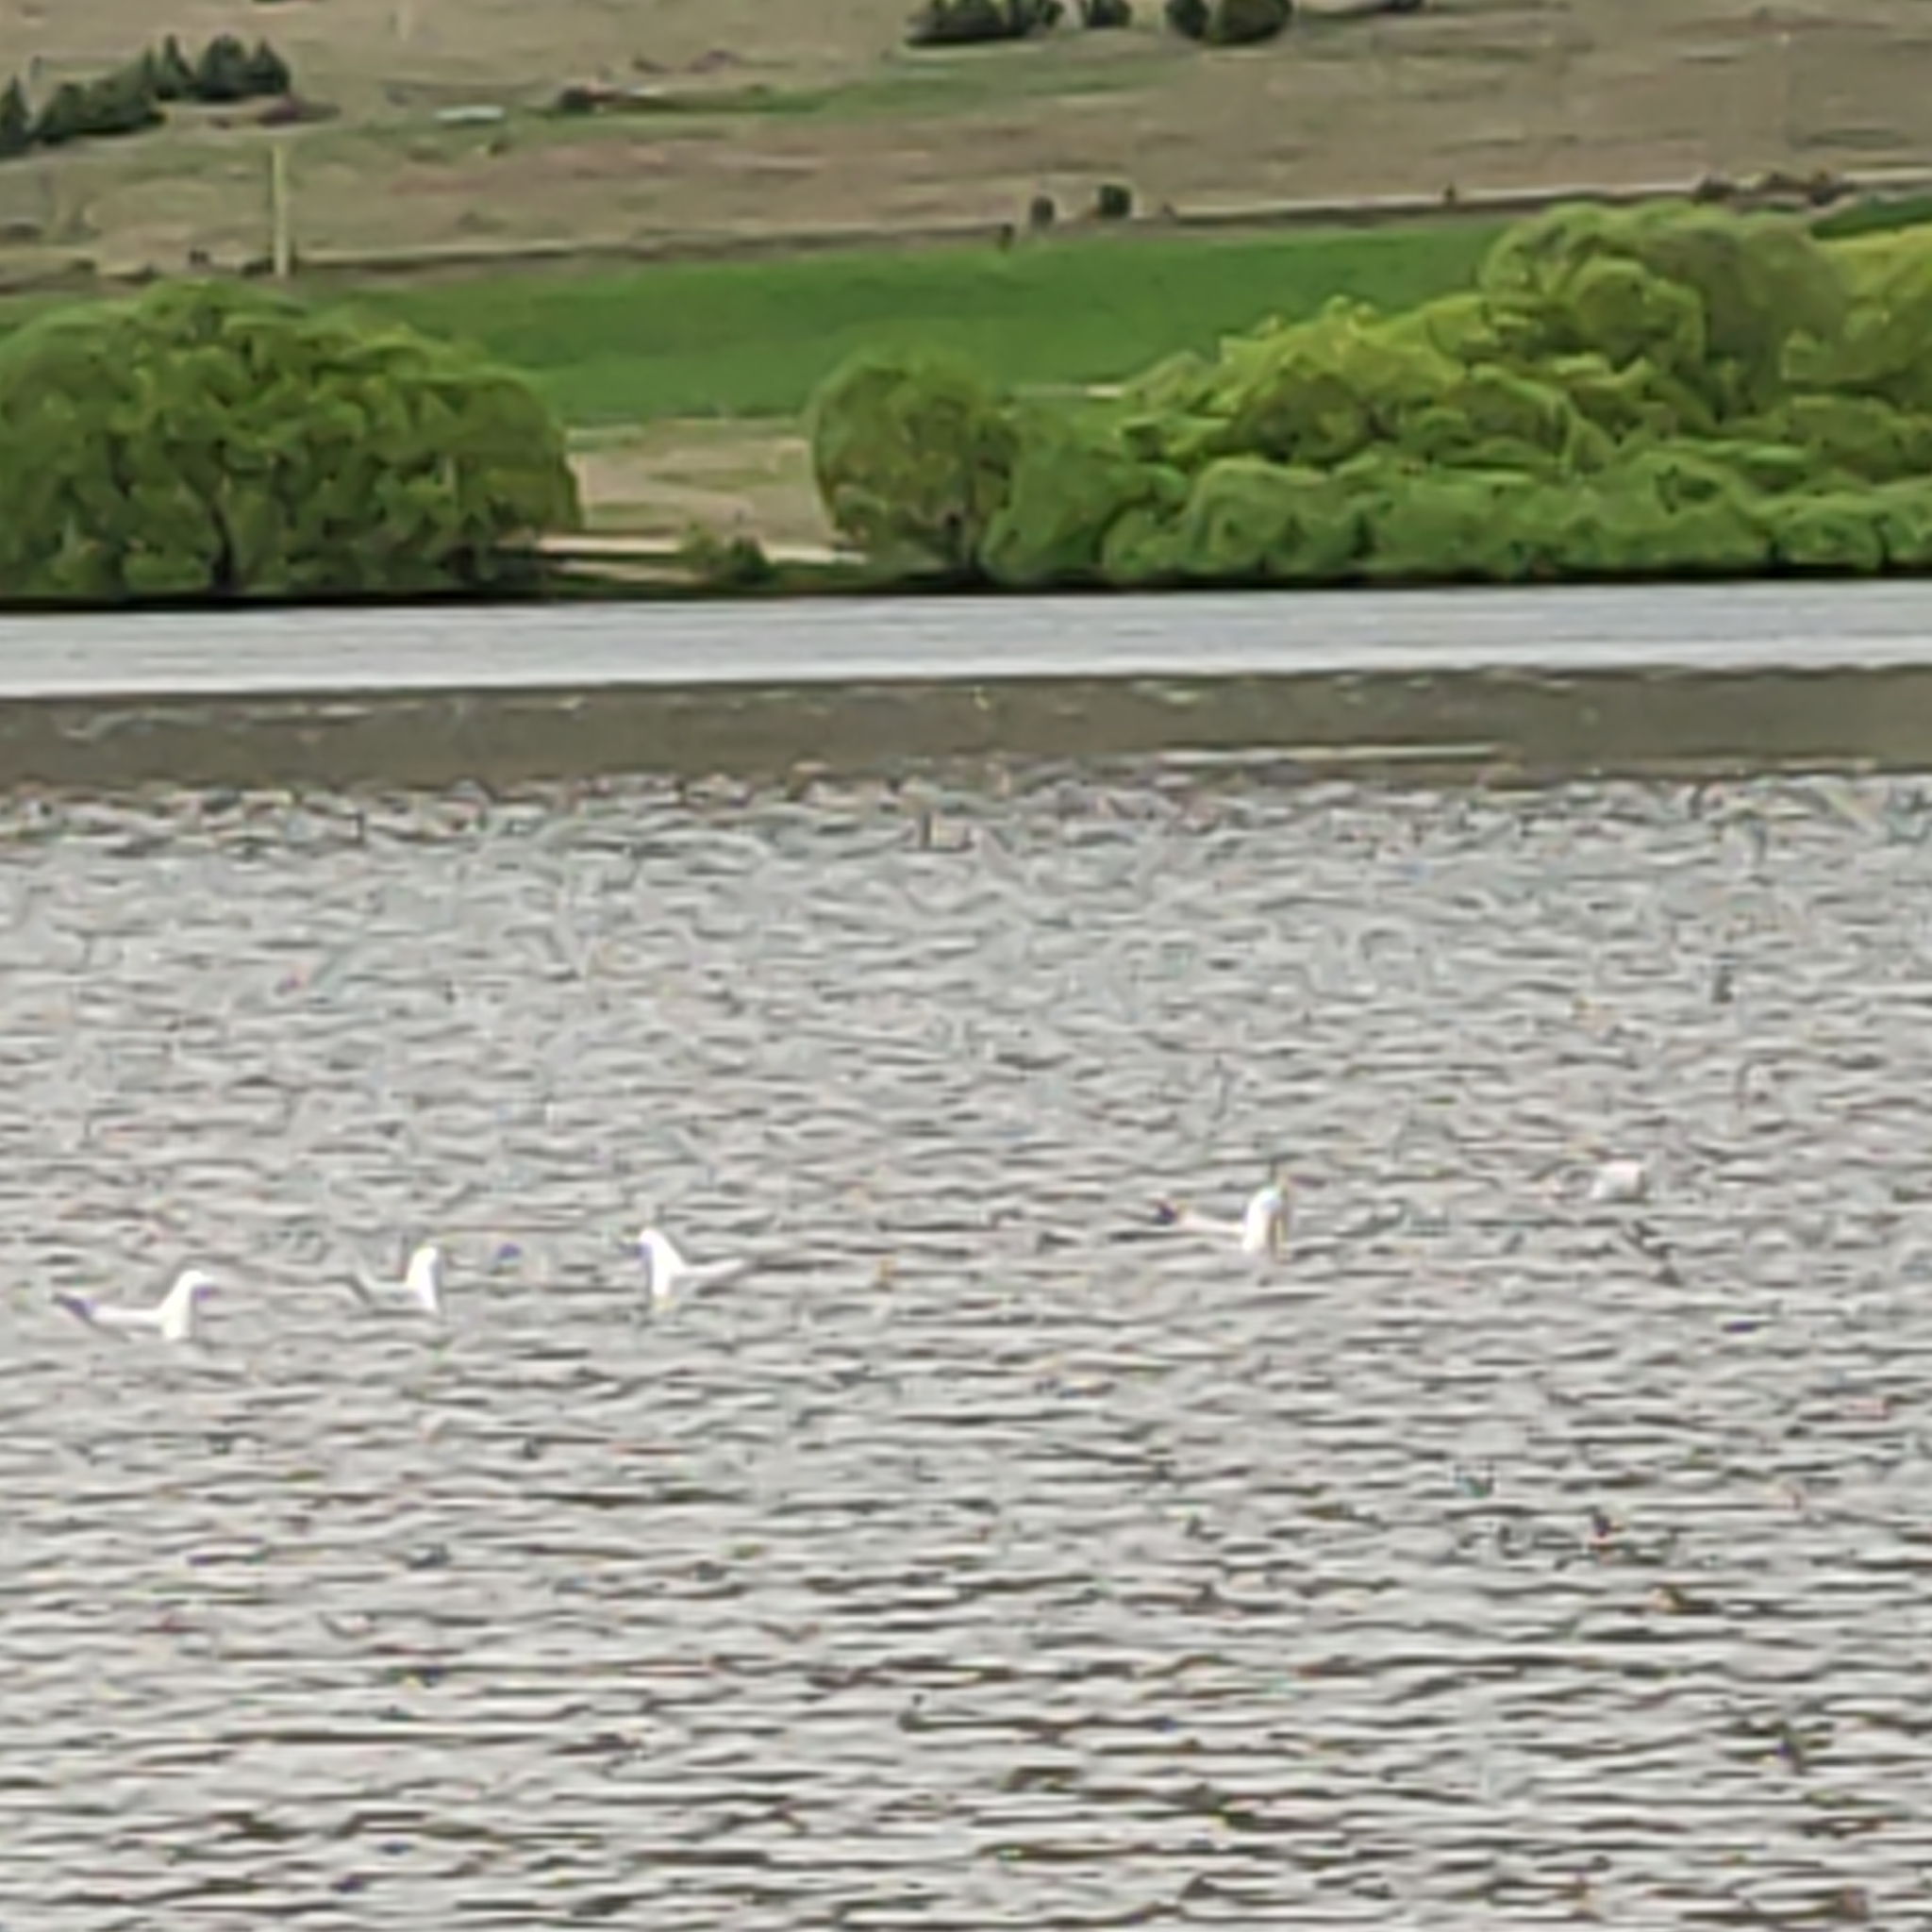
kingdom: Animalia
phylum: Chordata
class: Aves
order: Charadriiformes
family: Laridae
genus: Chroicocephalus
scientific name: Chroicocephalus bulleri
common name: Black-billed gull
